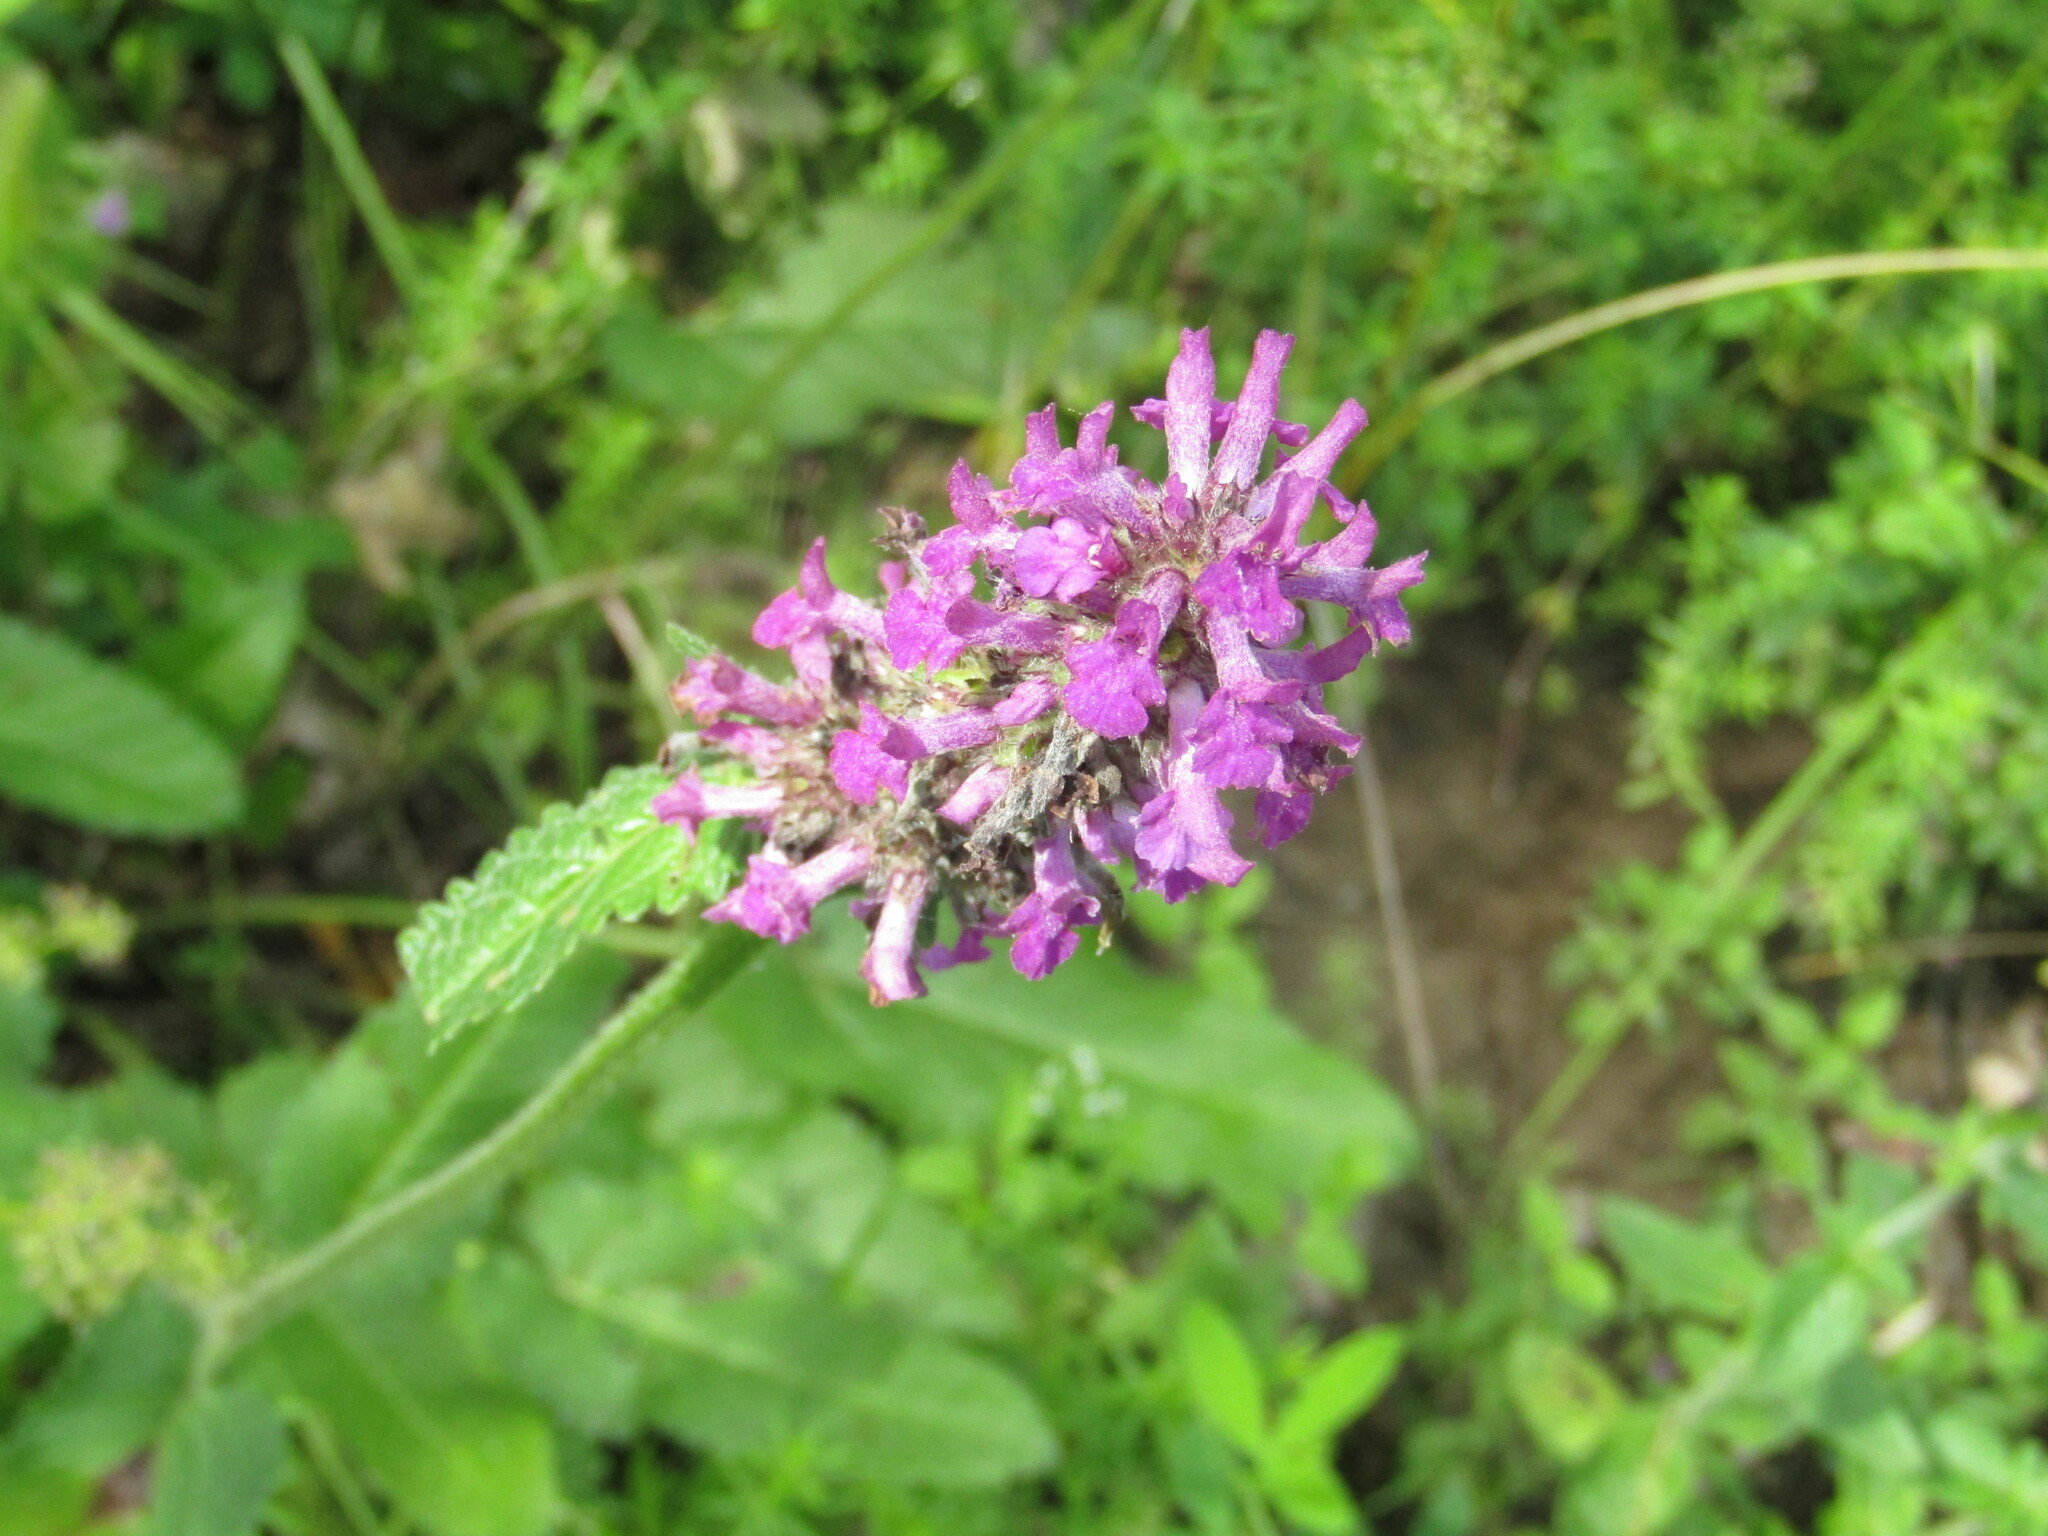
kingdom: Plantae
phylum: Tracheophyta
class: Magnoliopsida
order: Lamiales
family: Lamiaceae
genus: Betonica
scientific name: Betonica officinalis
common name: Bishop's-wort
